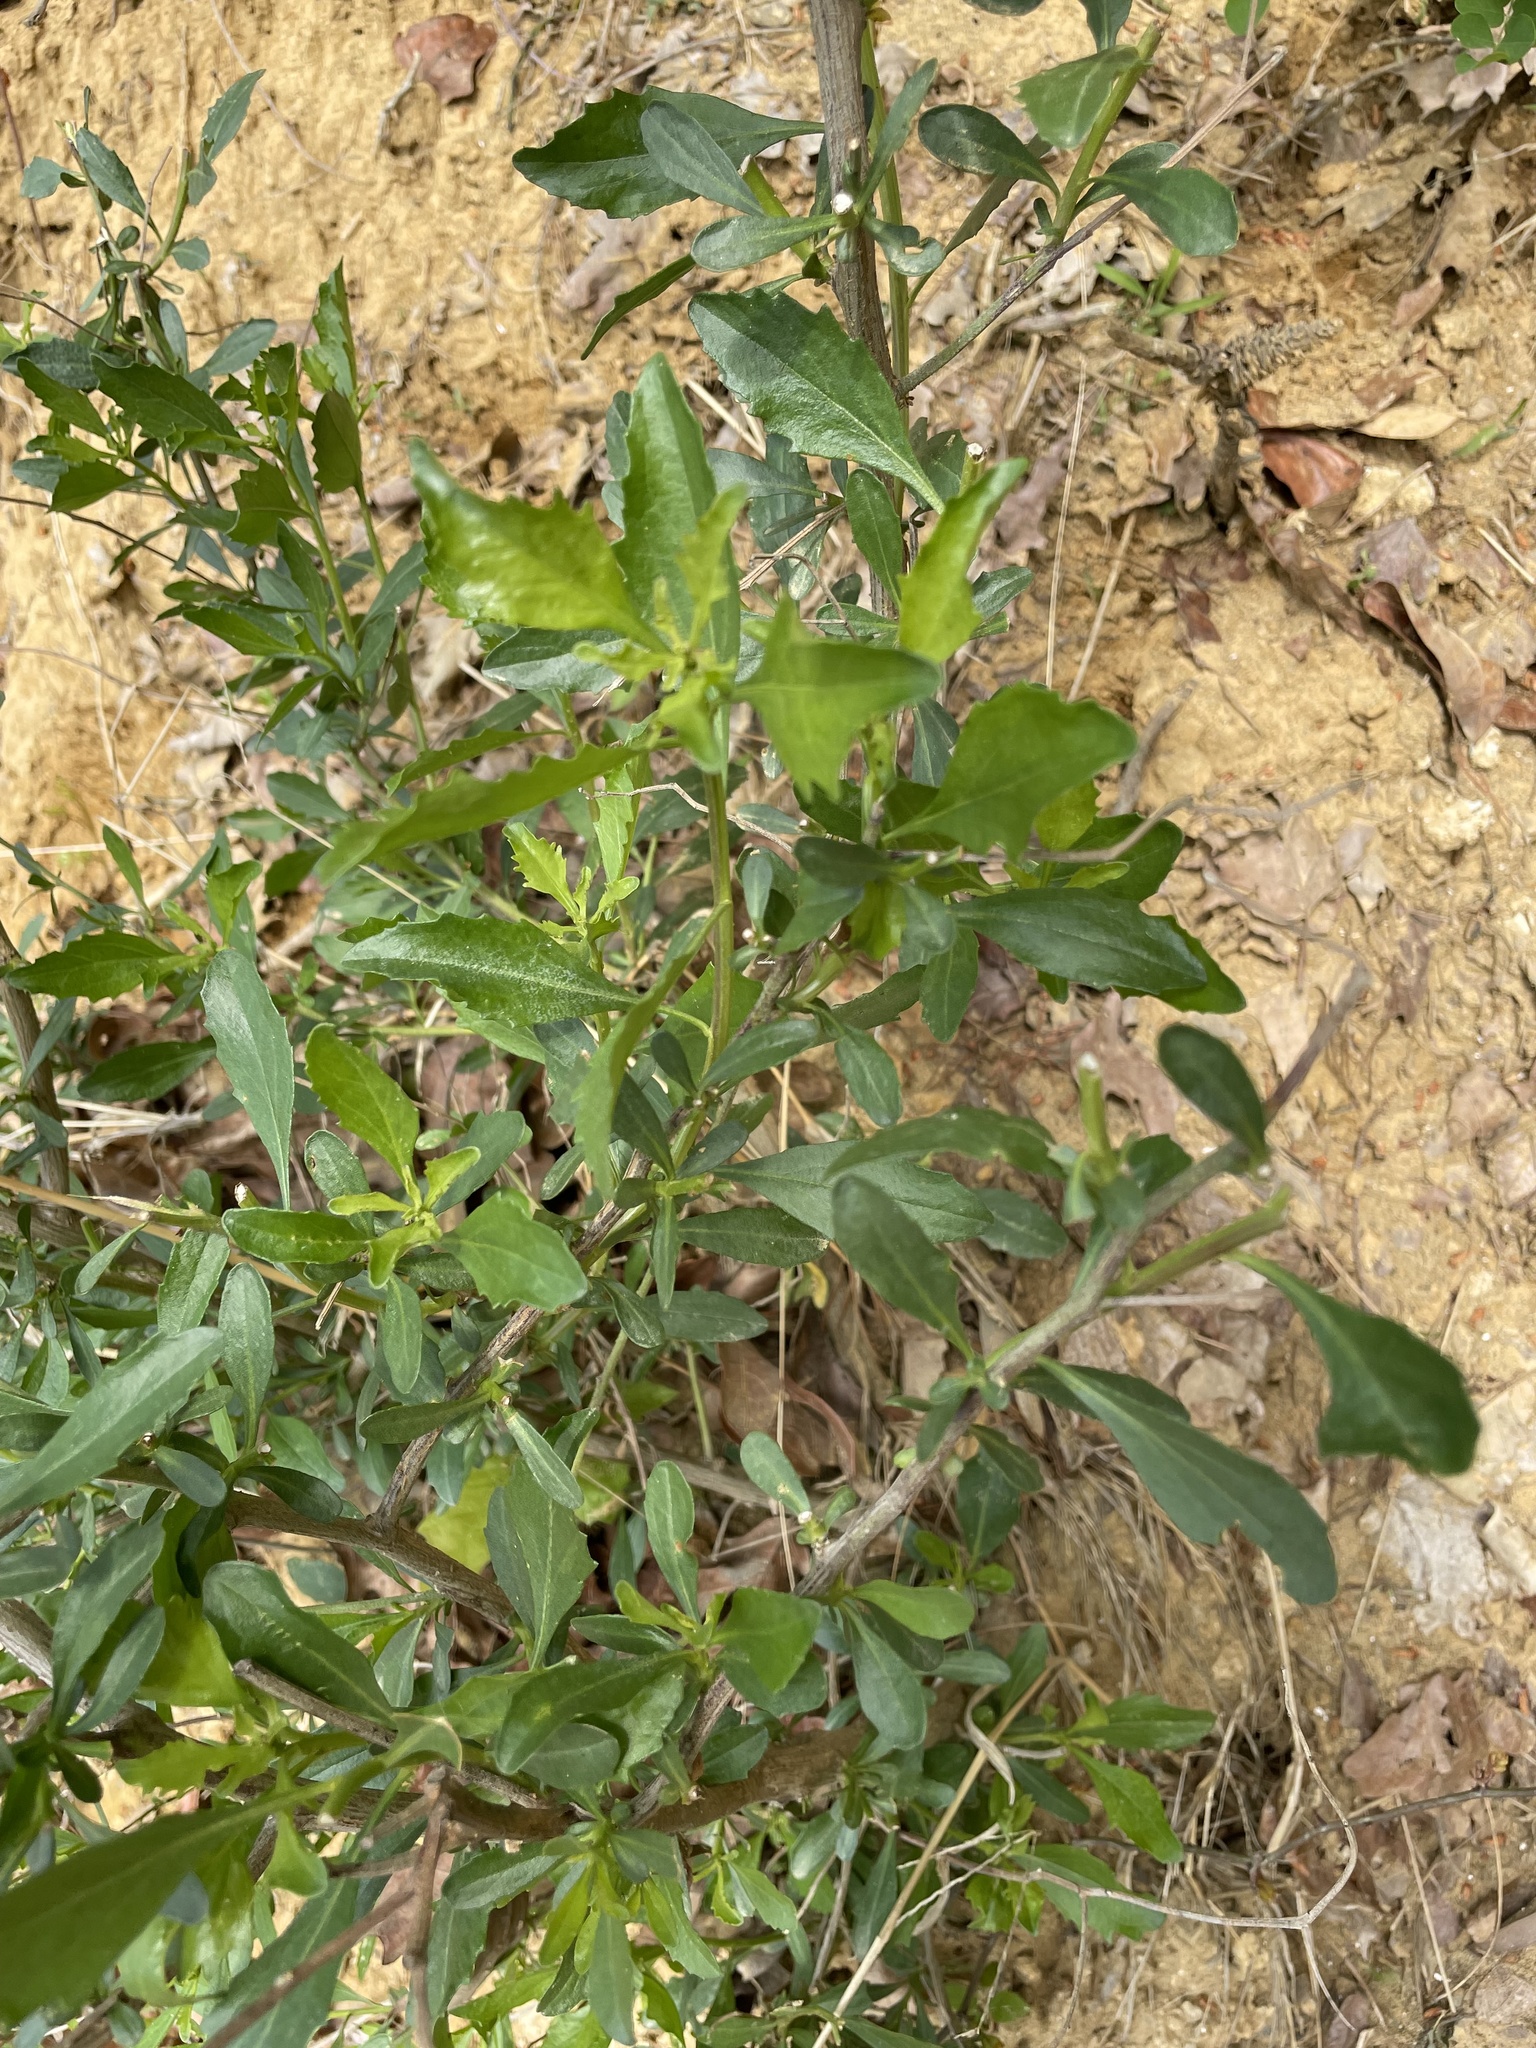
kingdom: Plantae
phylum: Tracheophyta
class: Magnoliopsida
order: Asterales
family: Asteraceae
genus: Baccharis
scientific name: Baccharis halimifolia
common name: Eastern baccharis
